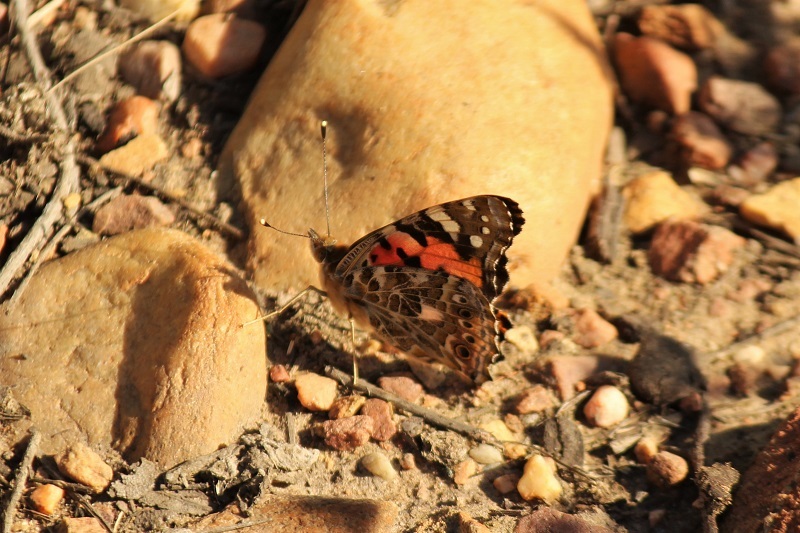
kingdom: Animalia
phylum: Arthropoda
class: Insecta
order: Lepidoptera
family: Nymphalidae
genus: Vanessa
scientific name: Vanessa cardui
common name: Painted lady
